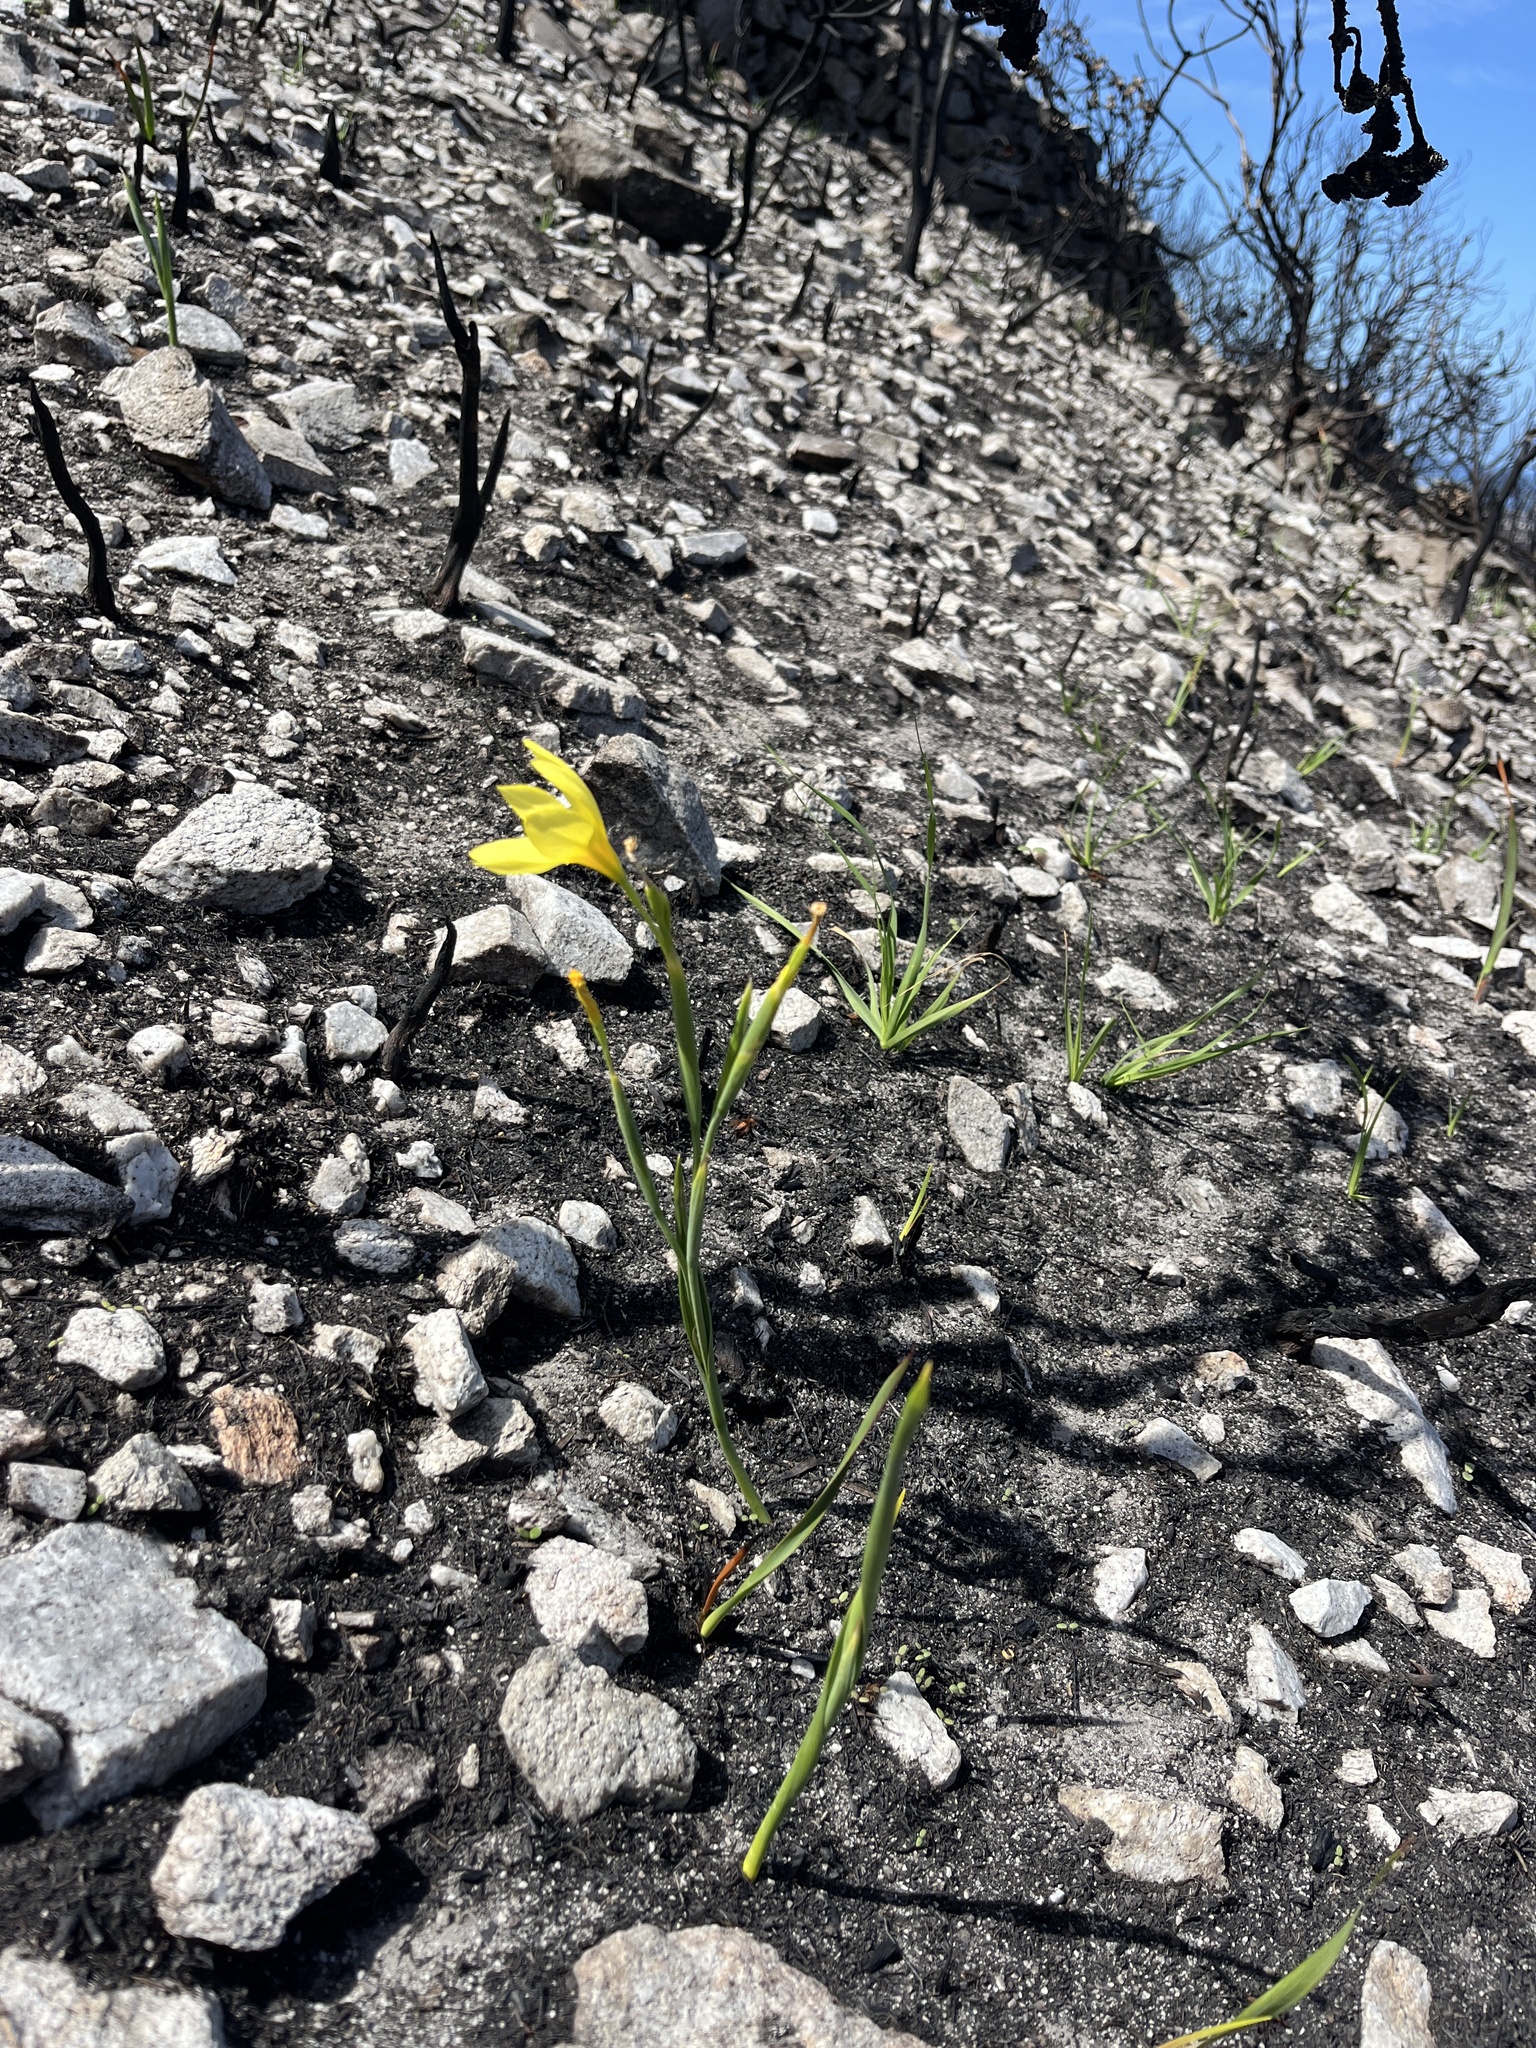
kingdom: Plantae
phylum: Tracheophyta
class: Liliopsida
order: Asparagales
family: Iridaceae
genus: Moraea
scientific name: Moraea pyrophila
